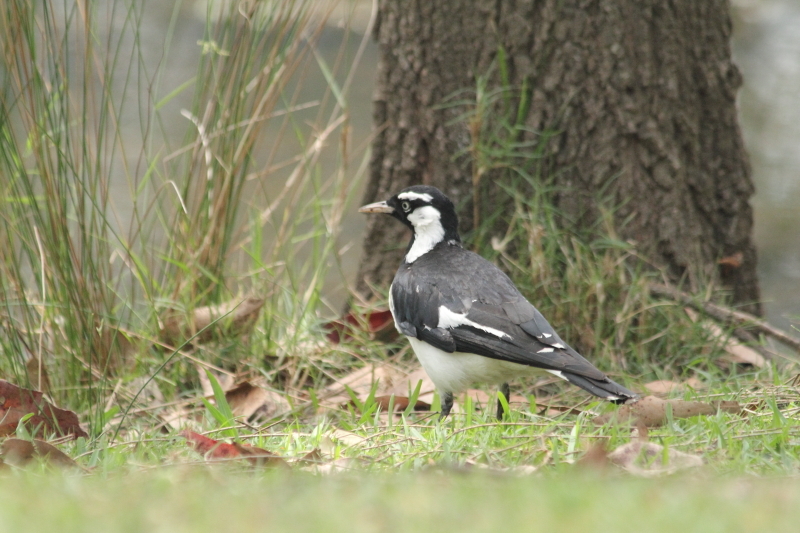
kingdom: Animalia
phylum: Chordata
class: Aves
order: Passeriformes
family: Monarchidae
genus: Grallina
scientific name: Grallina cyanoleuca
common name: Magpie-lark
